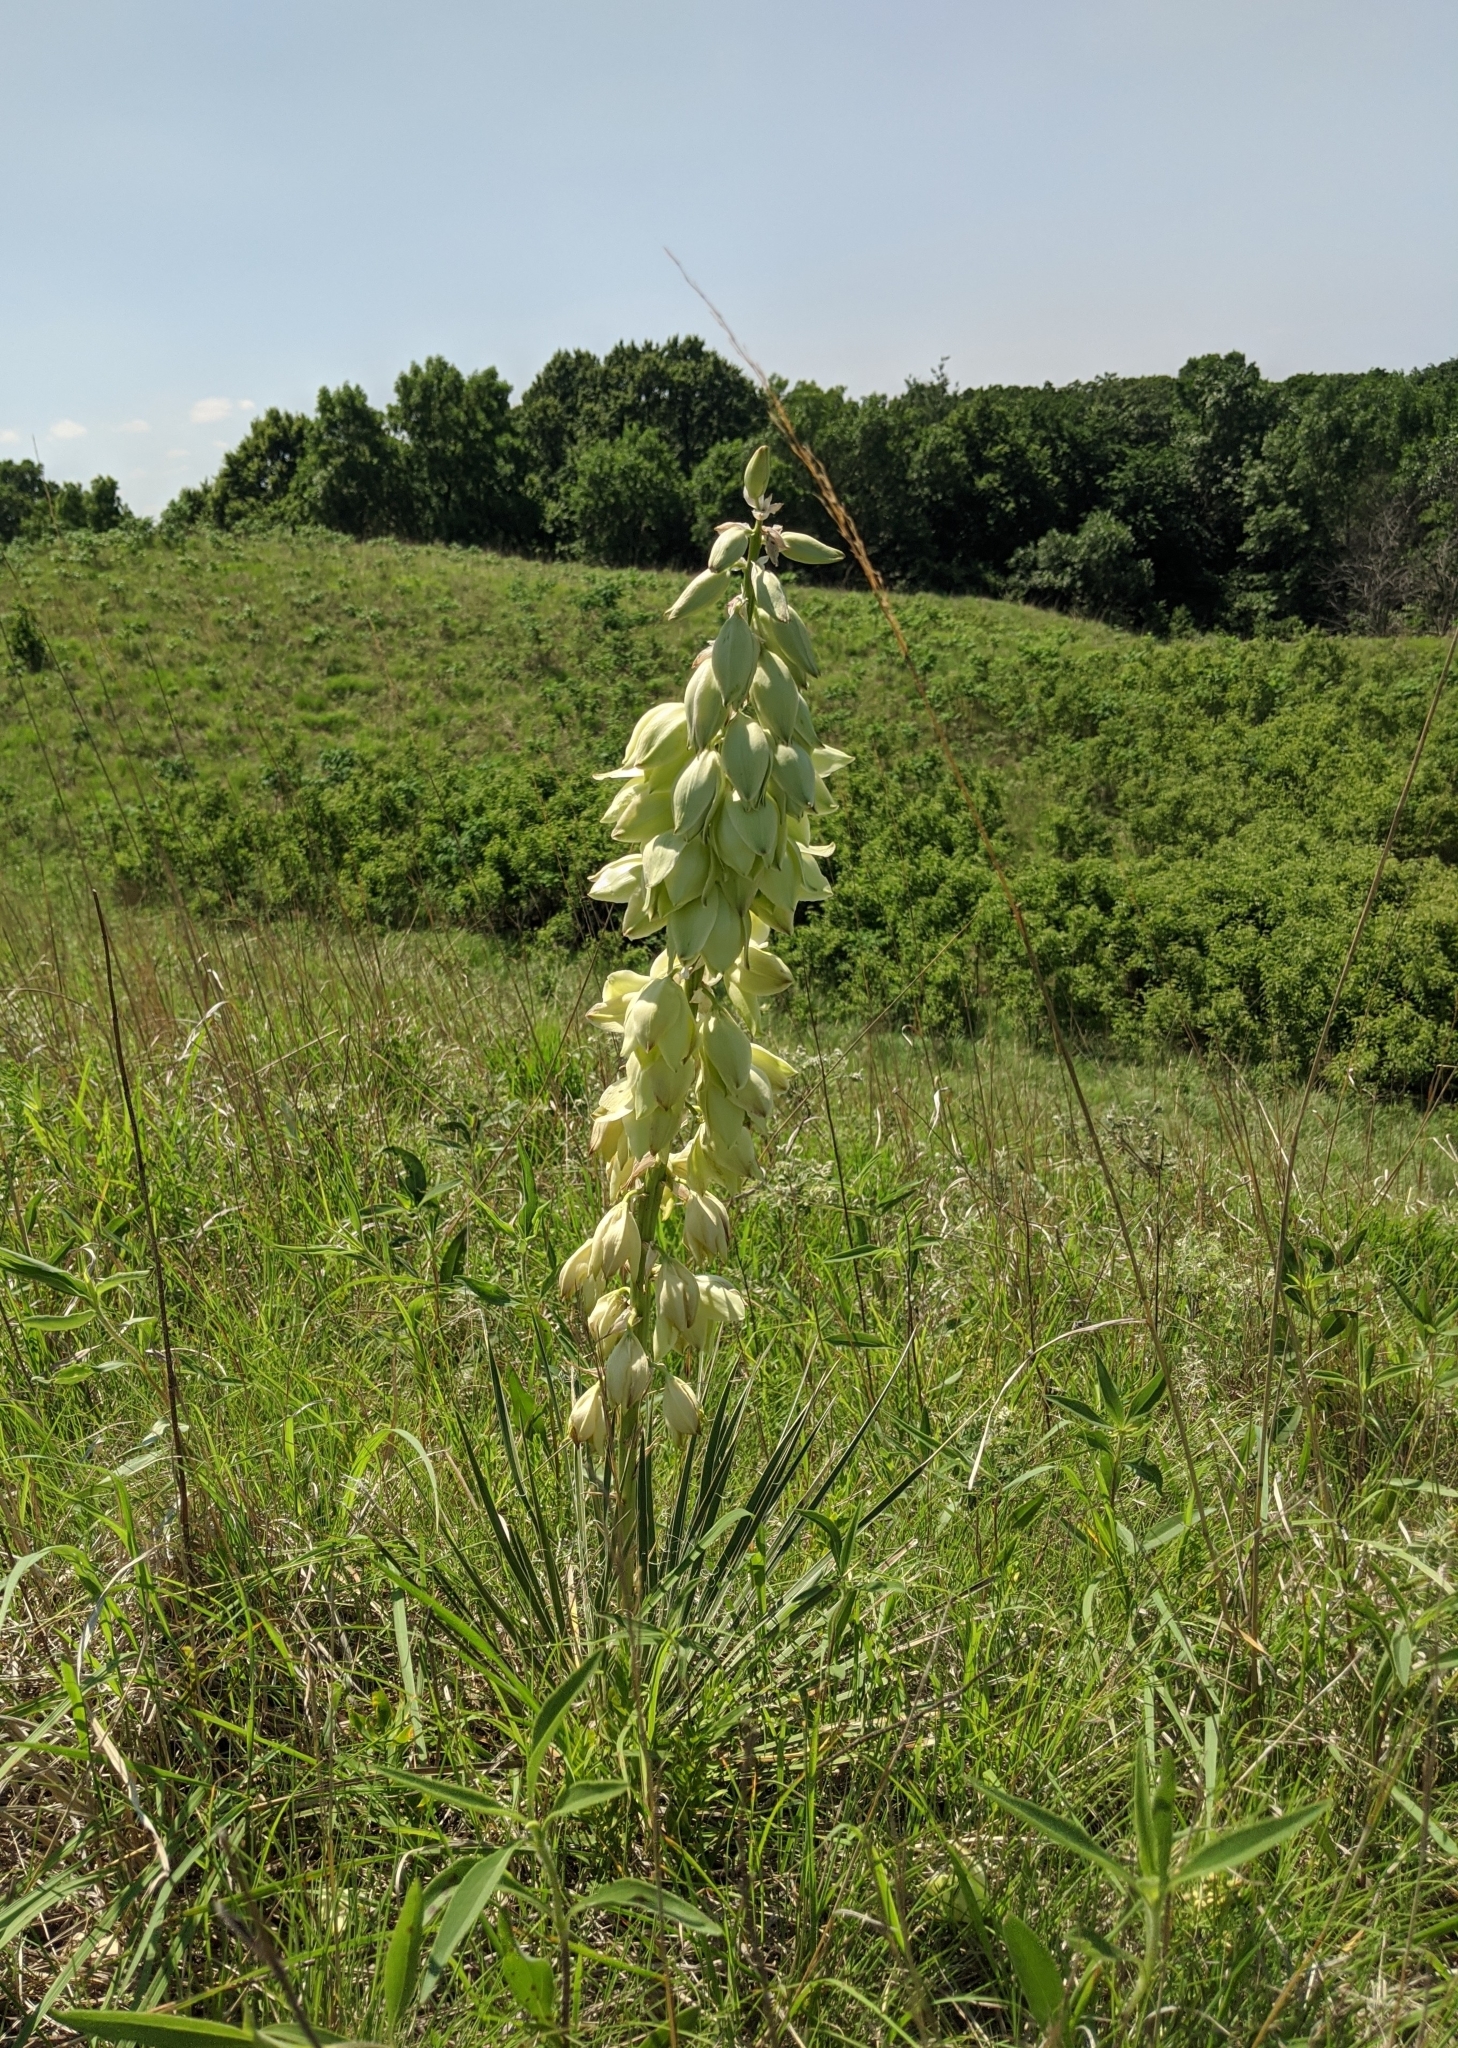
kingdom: Plantae
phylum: Tracheophyta
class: Liliopsida
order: Asparagales
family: Asparagaceae
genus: Yucca
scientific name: Yucca glauca
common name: Great plains yucca
